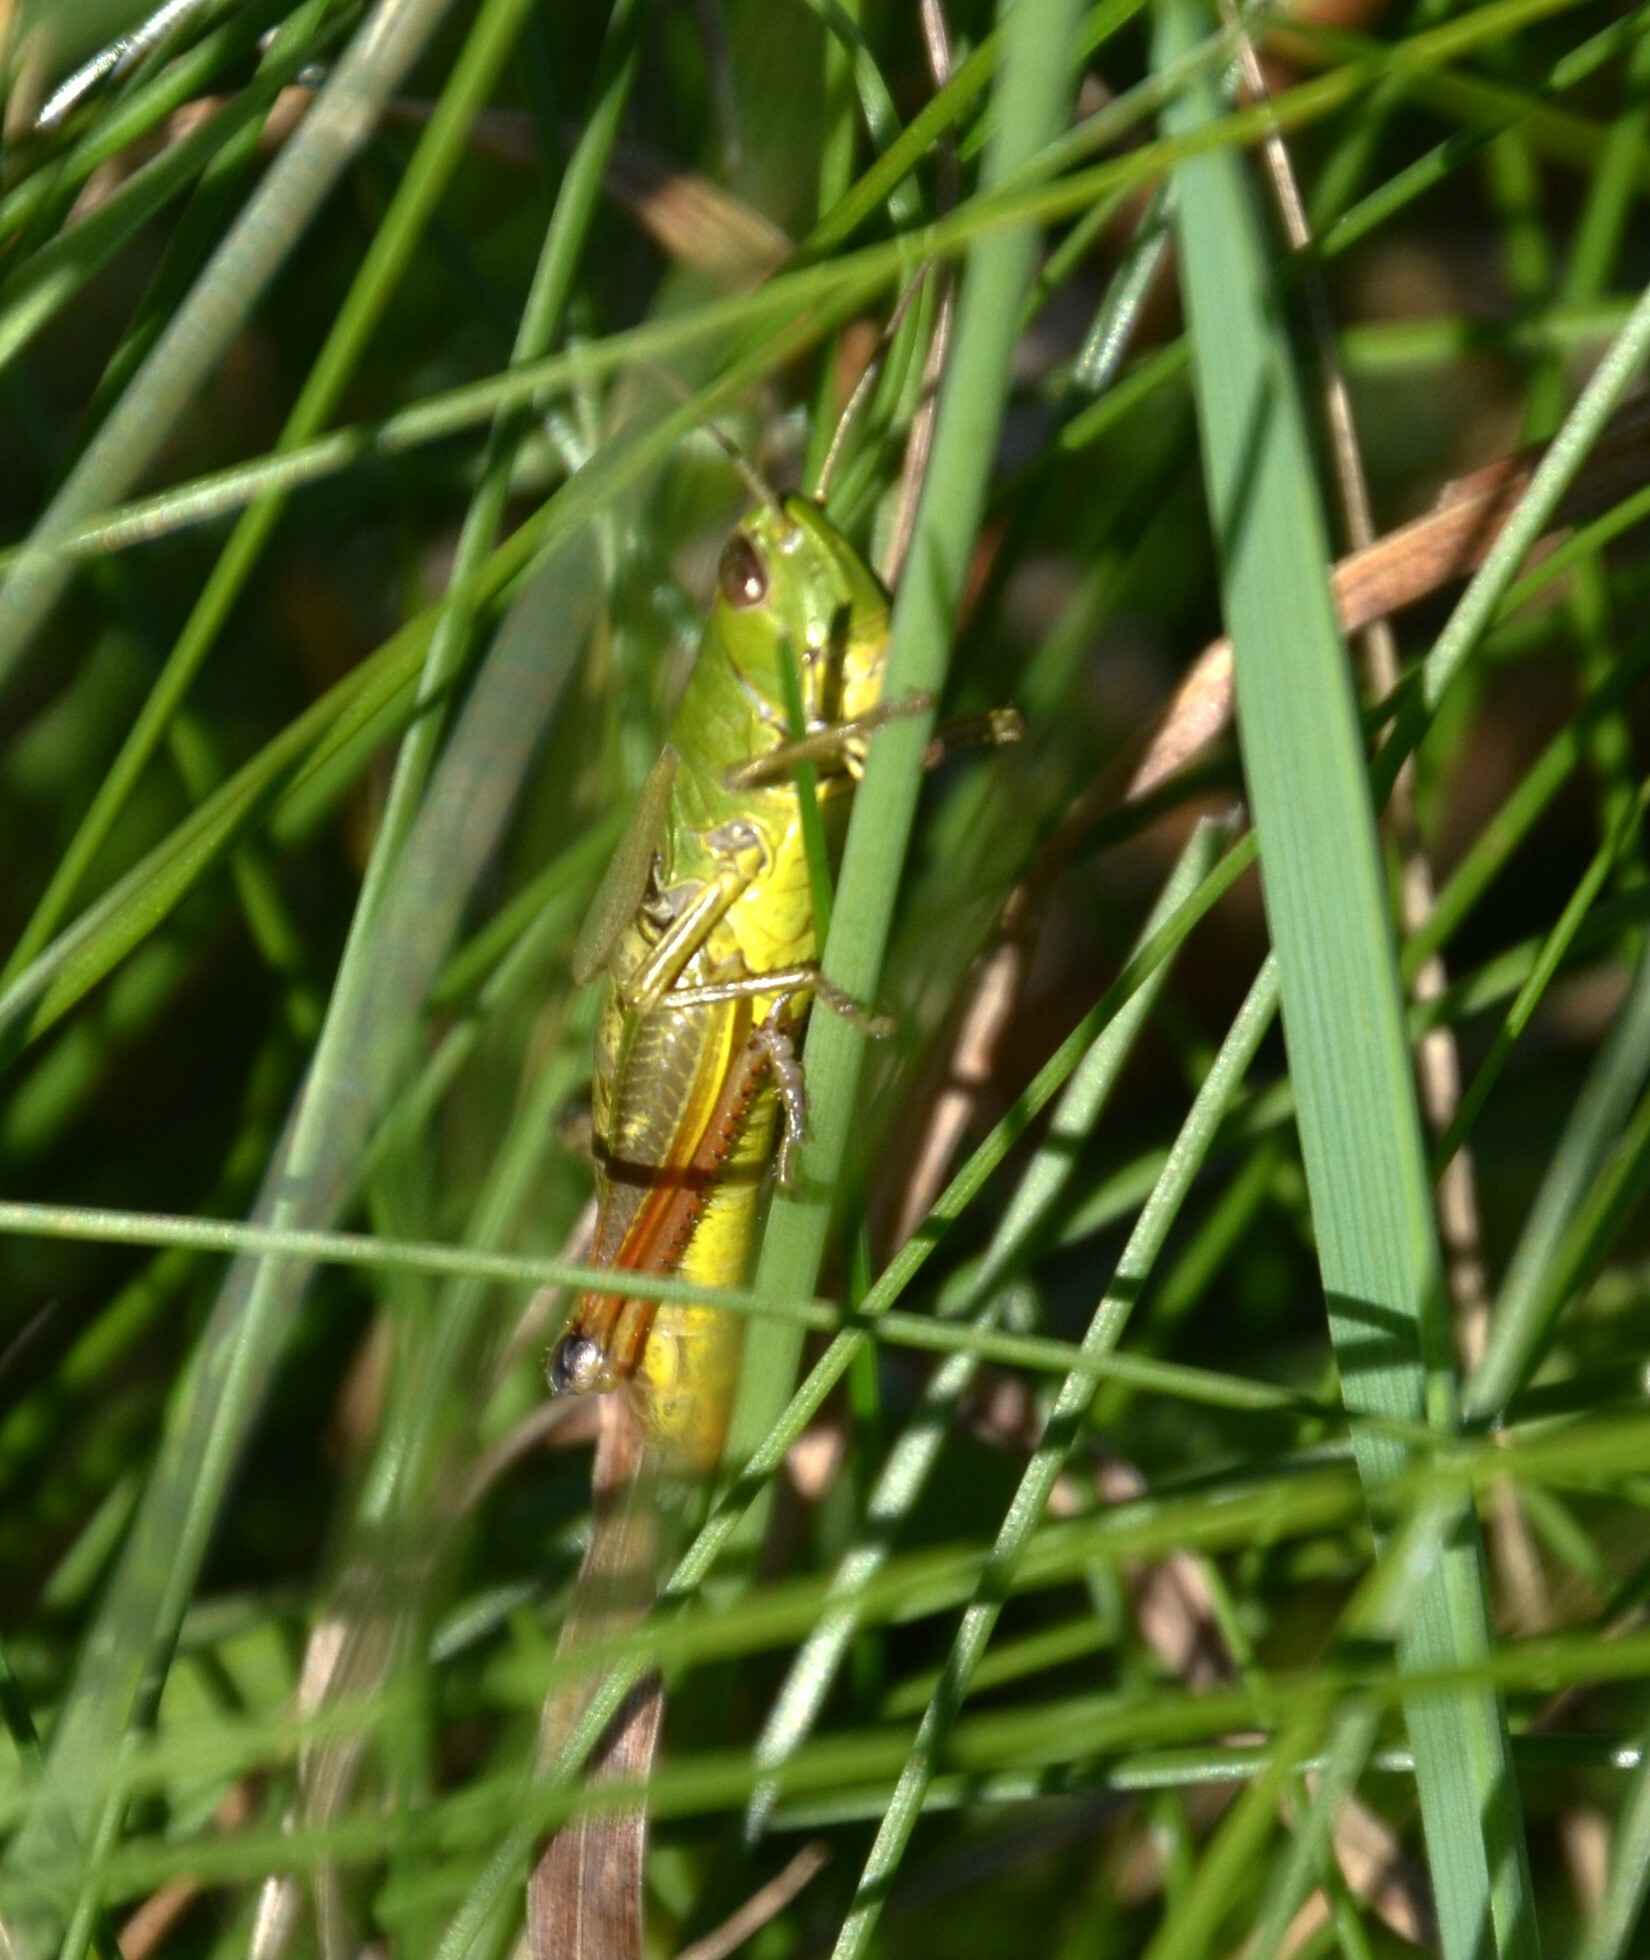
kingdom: Animalia
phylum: Arthropoda
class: Insecta
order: Orthoptera
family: Acrididae
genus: Pseudochorthippus
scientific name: Pseudochorthippus parallelus
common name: Meadow grasshopper
